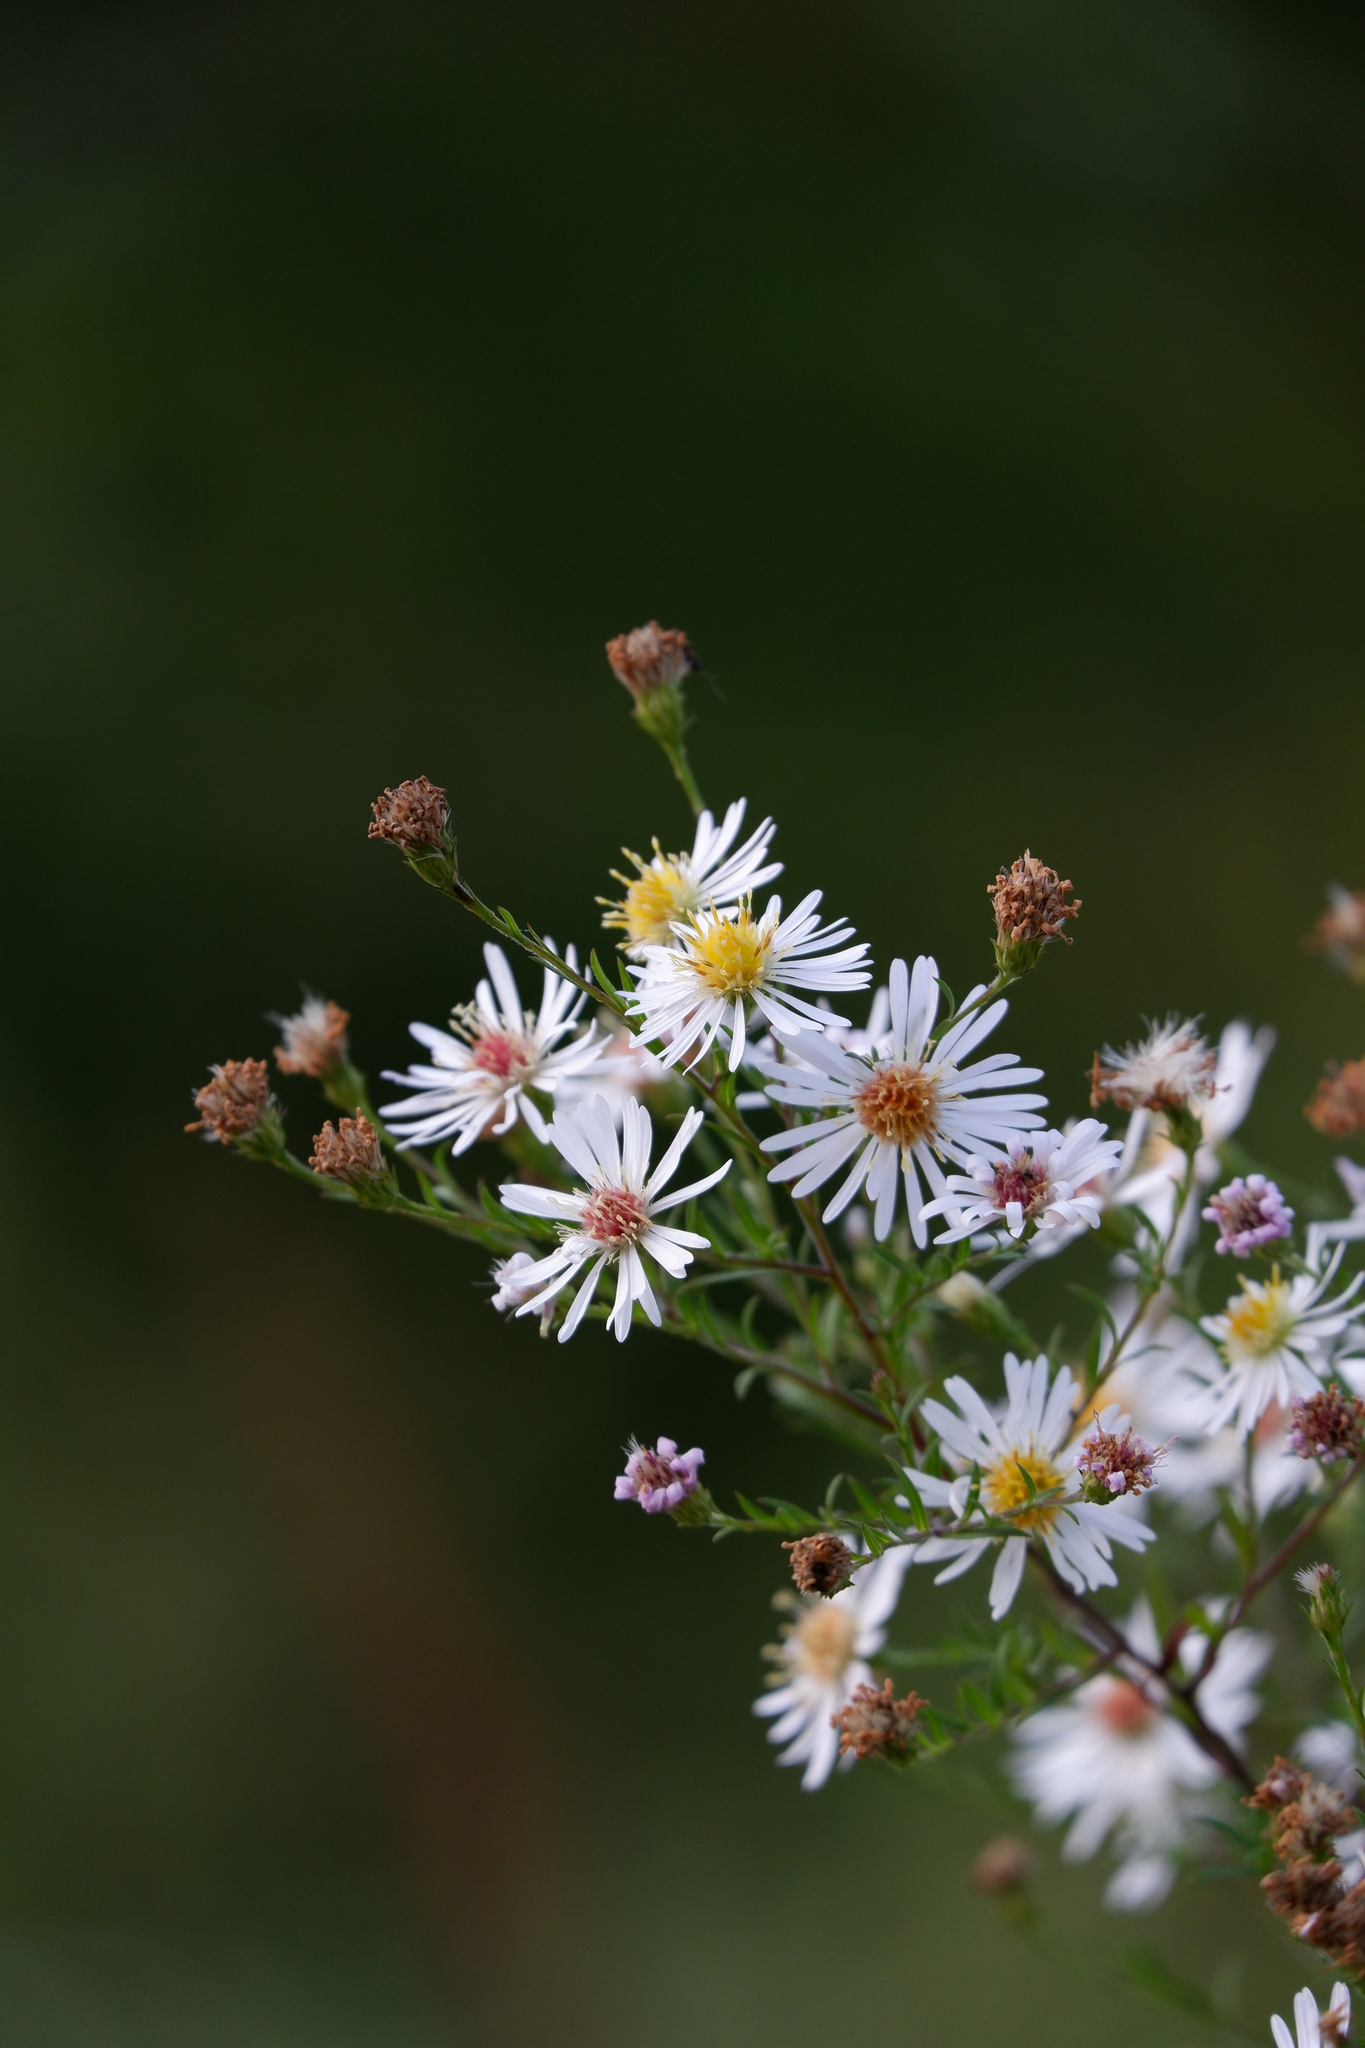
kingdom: Plantae
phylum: Tracheophyta
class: Magnoliopsida
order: Asterales
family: Asteraceae
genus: Symphyotrichum
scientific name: Symphyotrichum lanceolatum
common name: Panicled aster
